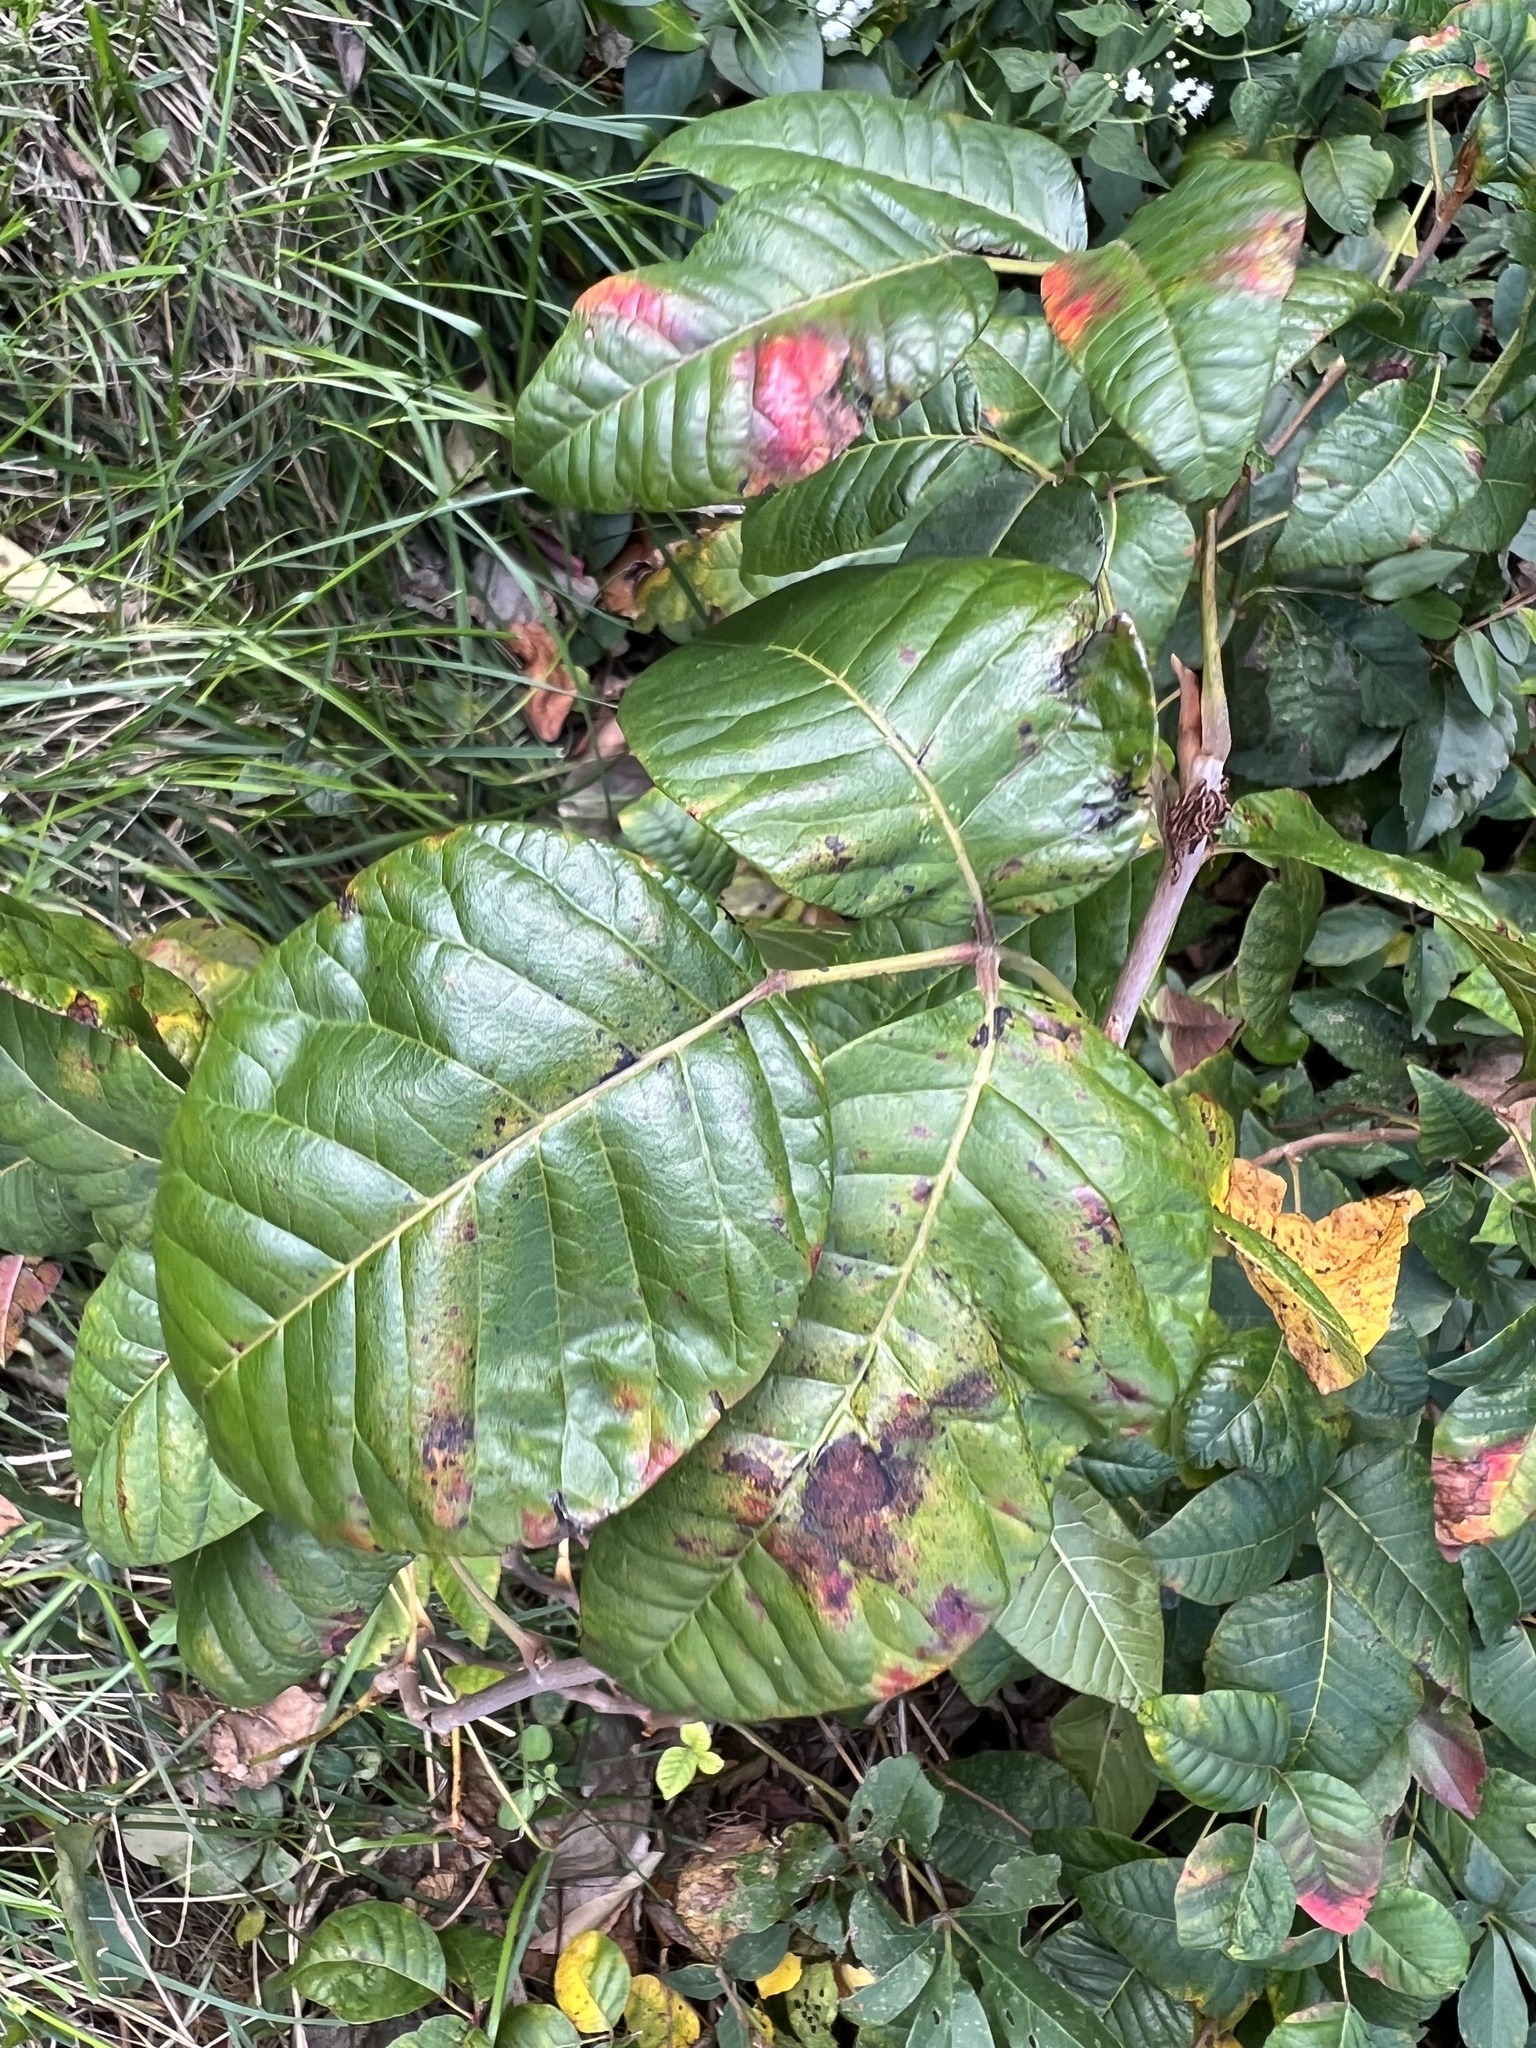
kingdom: Plantae
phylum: Tracheophyta
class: Magnoliopsida
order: Sapindales
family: Anacardiaceae
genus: Toxicodendron
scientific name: Toxicodendron radicans
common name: Poison ivy
